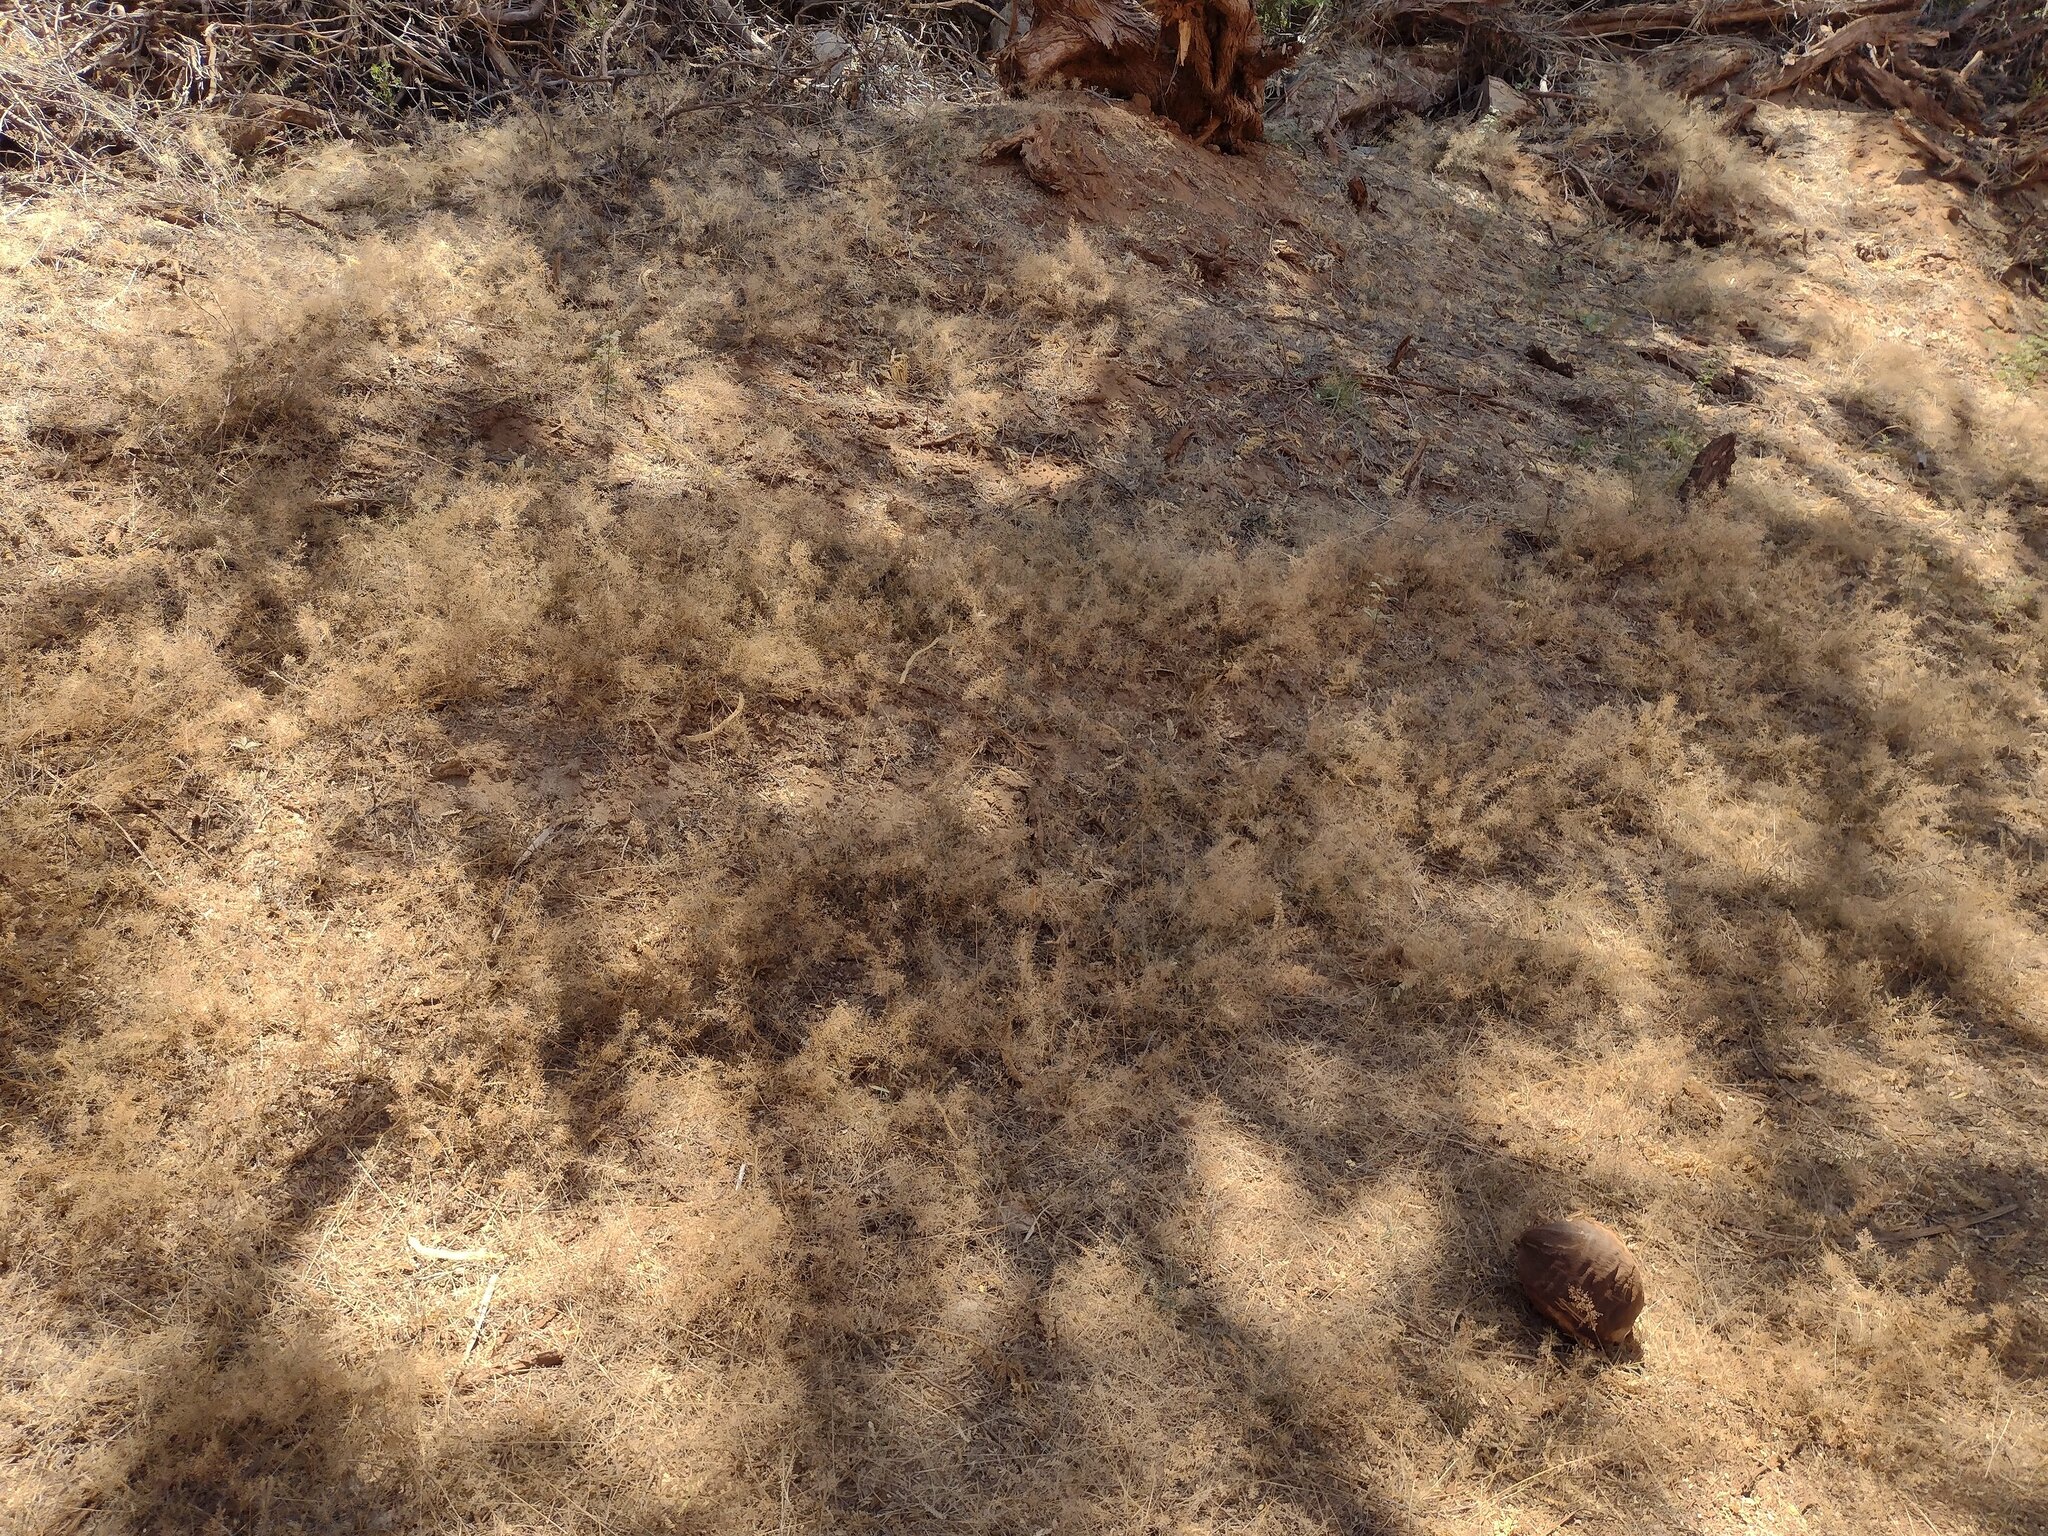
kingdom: Plantae
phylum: Tracheophyta
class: Liliopsida
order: Poales
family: Poaceae
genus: Eragrostis
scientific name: Eragrostis tenella
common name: Japanese lovegrass
